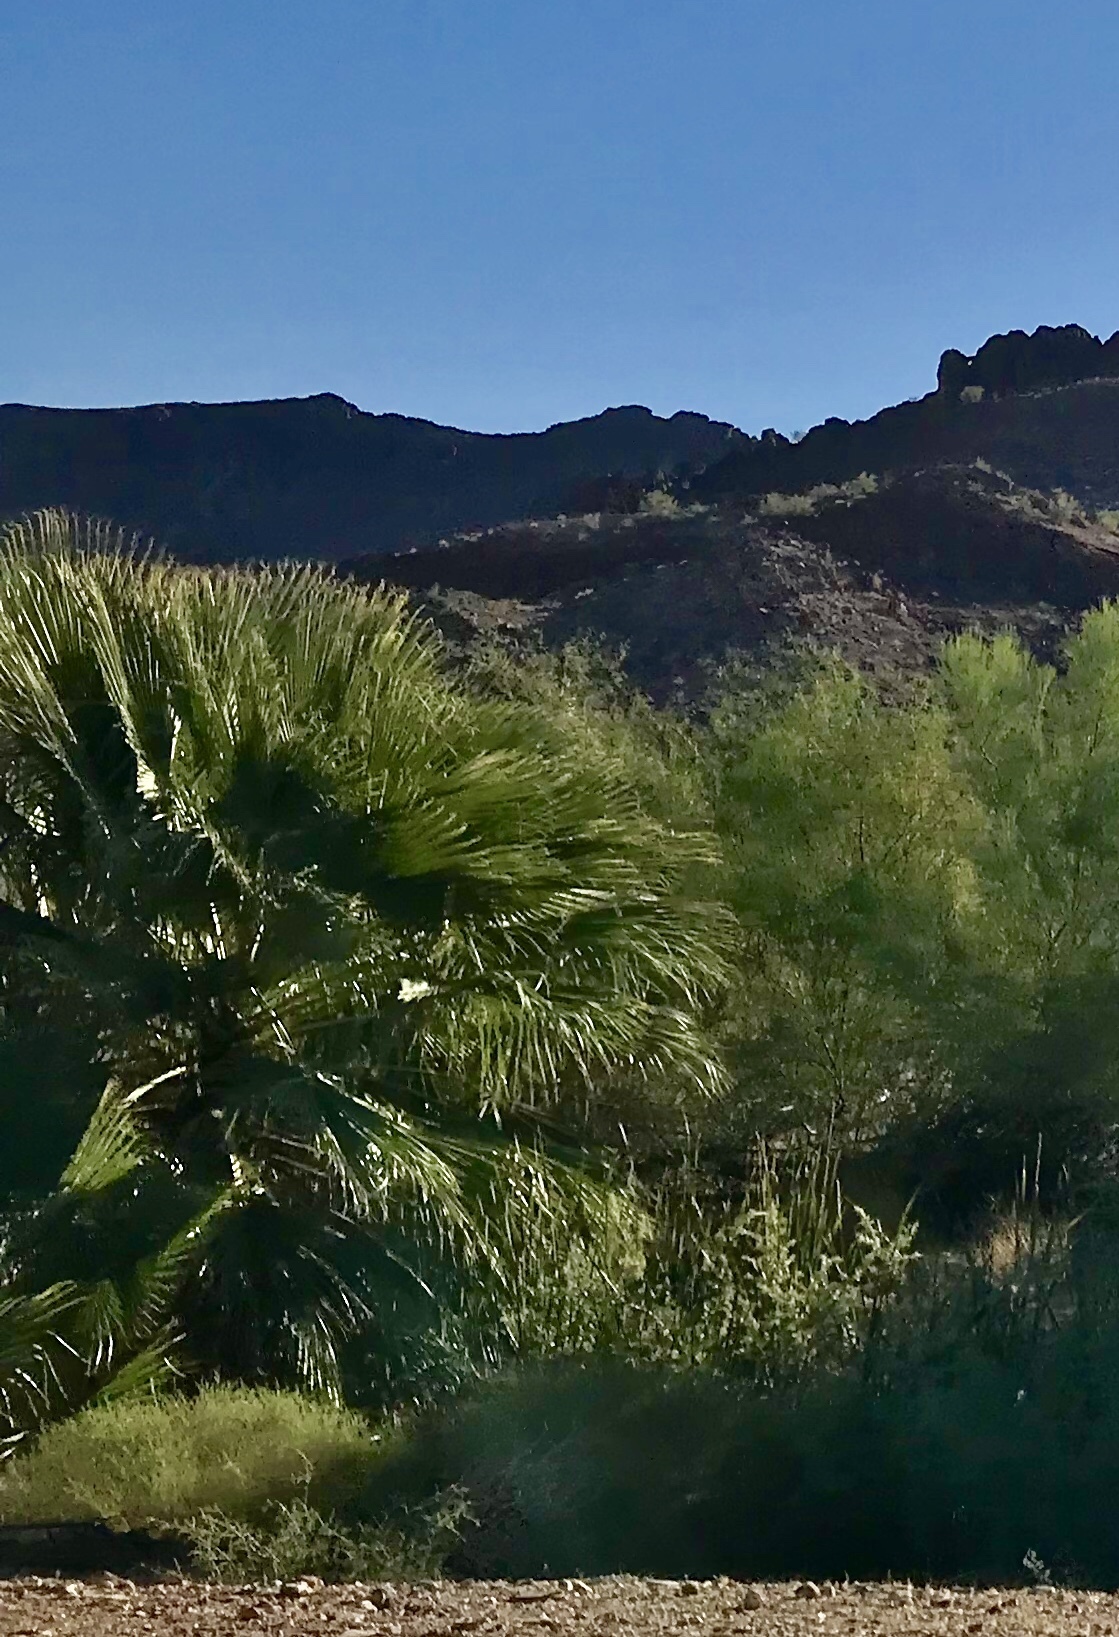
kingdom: Plantae
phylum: Tracheophyta
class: Liliopsida
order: Arecales
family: Arecaceae
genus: Washingtonia
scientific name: Washingtonia filifera
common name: California fan palm
